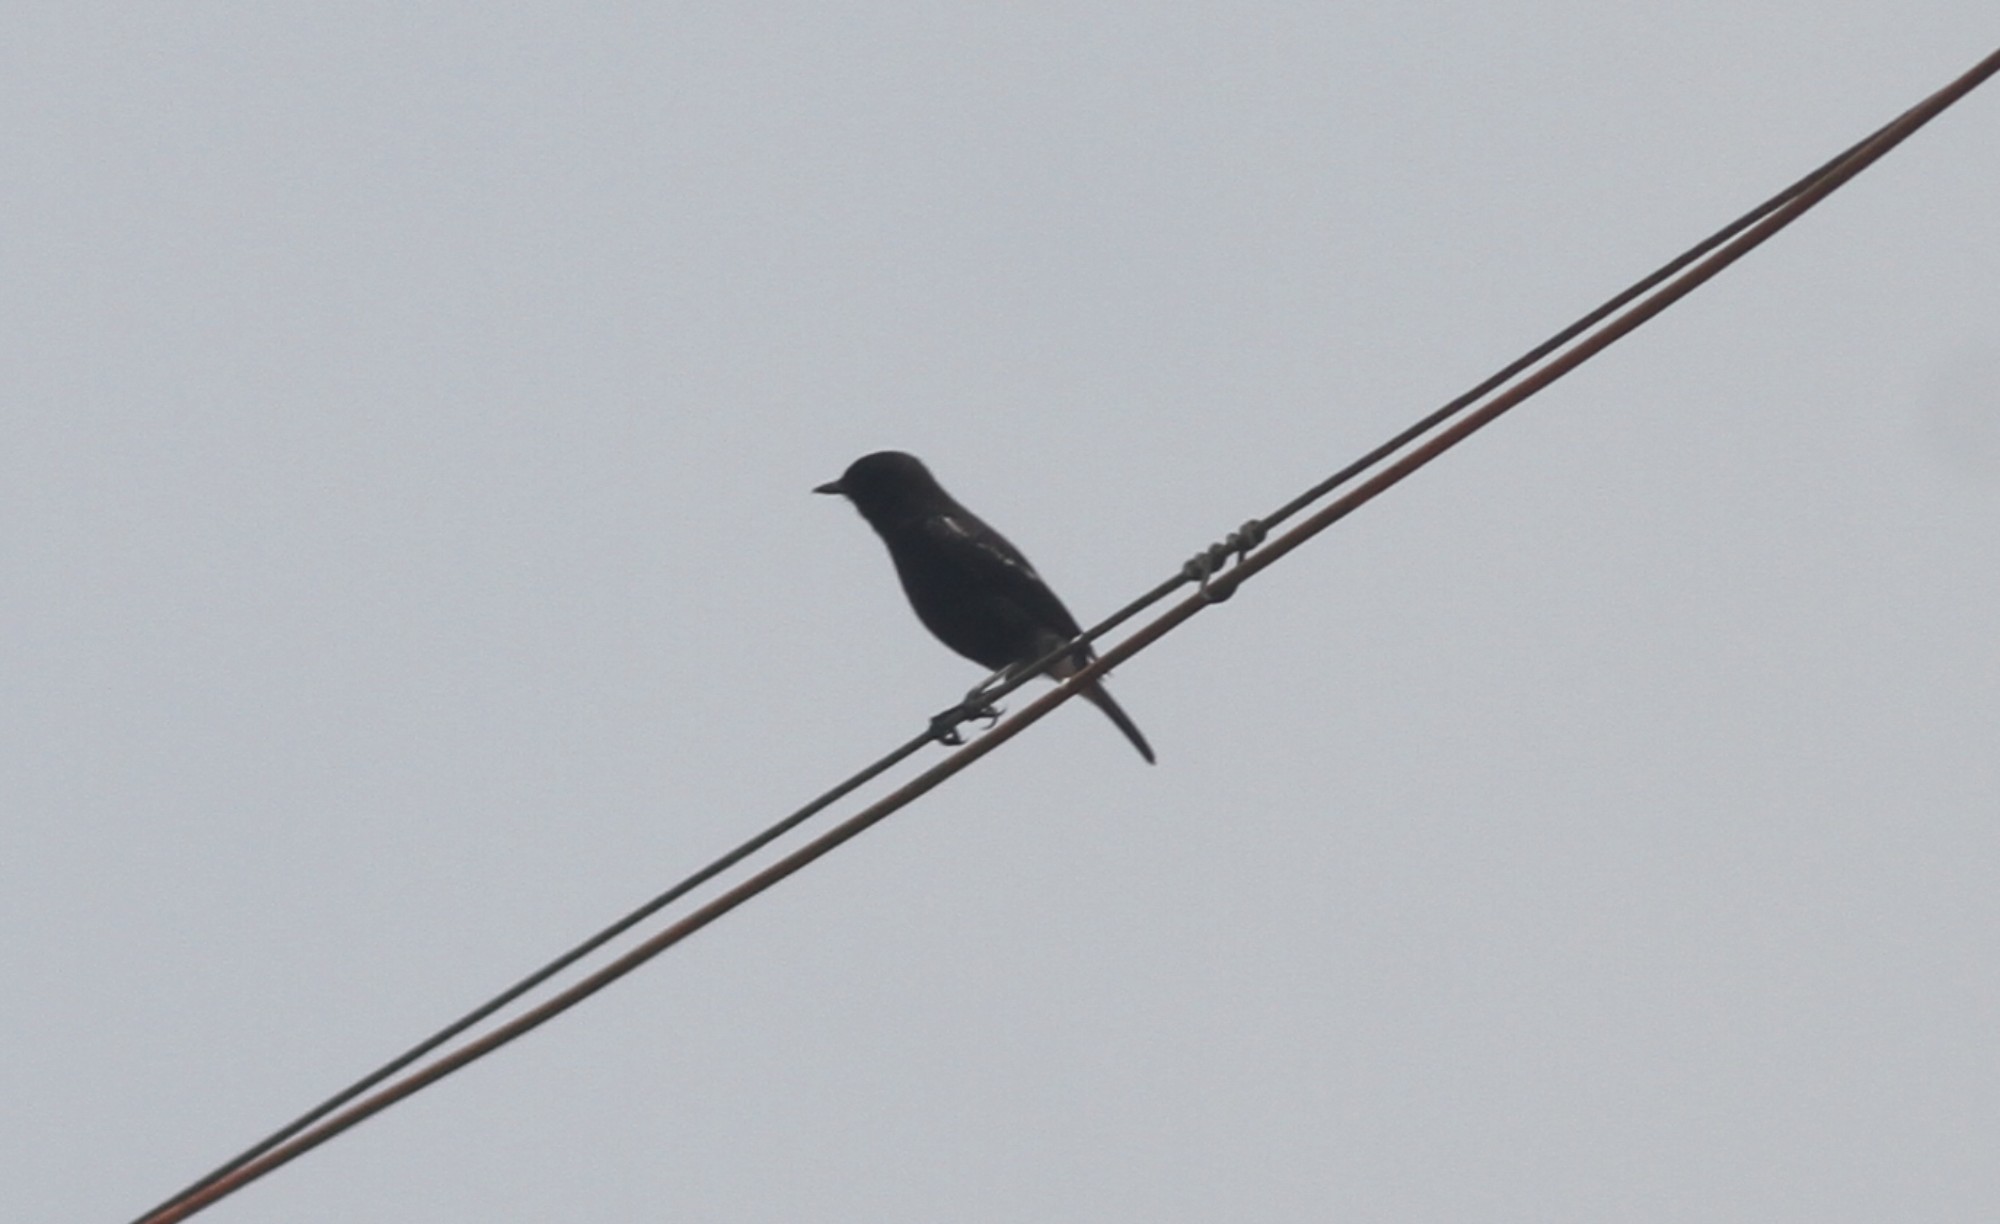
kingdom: Animalia
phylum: Chordata
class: Aves
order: Passeriformes
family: Muscicapidae
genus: Saxicola
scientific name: Saxicola caprata
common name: Pied bush chat
